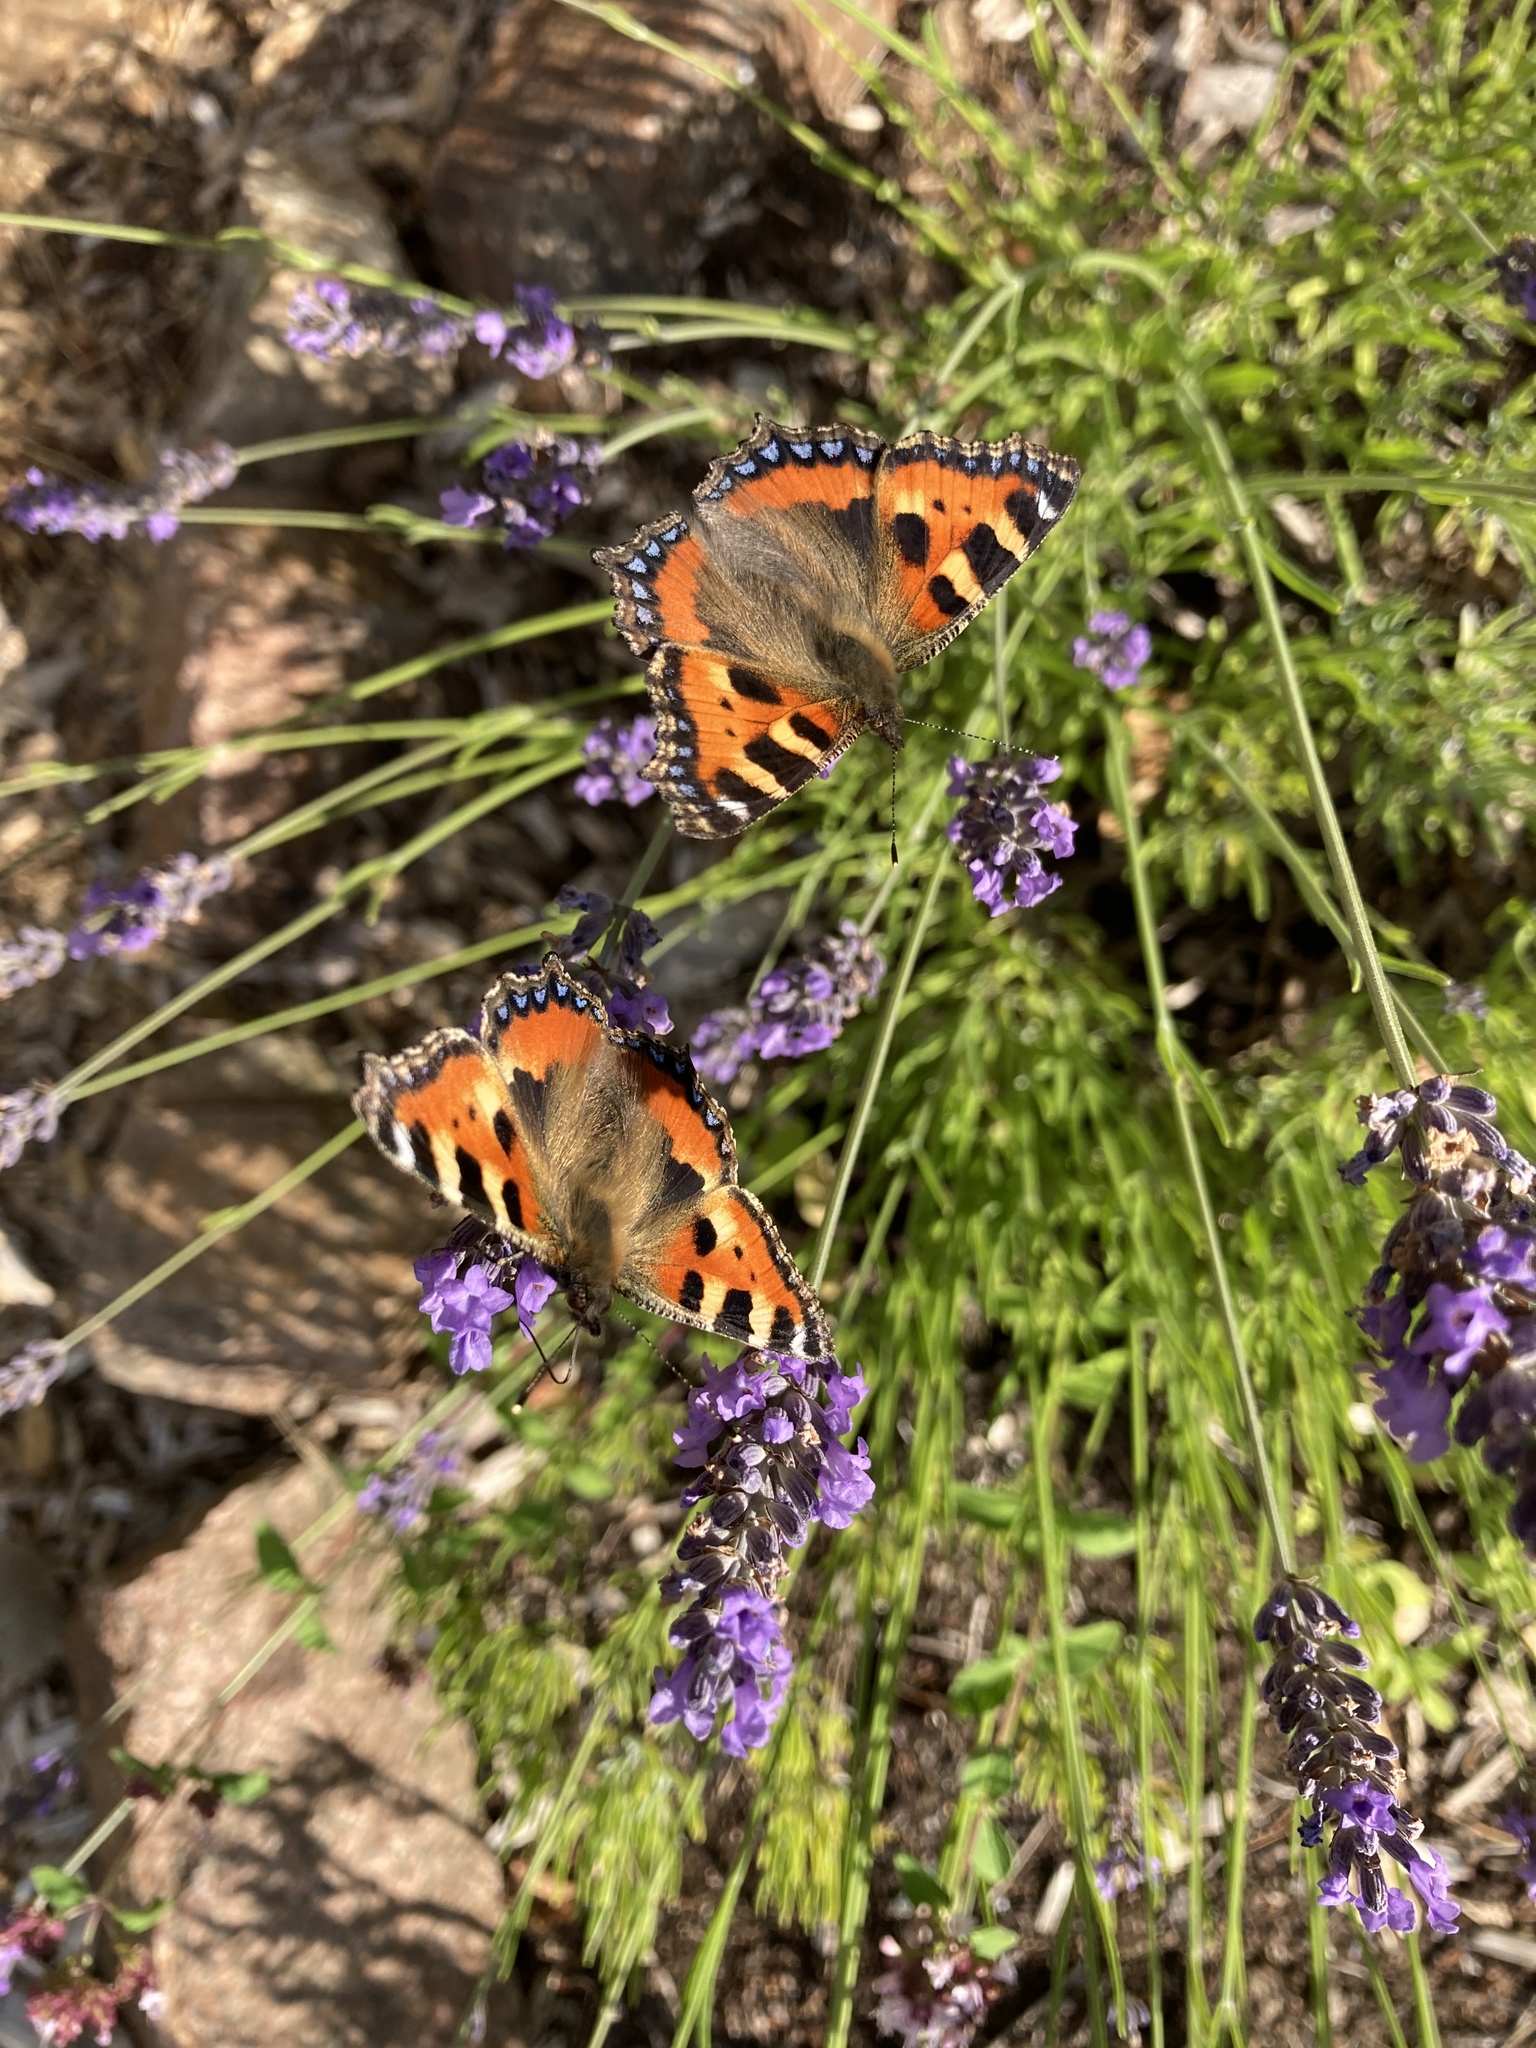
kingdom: Animalia
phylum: Arthropoda
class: Insecta
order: Lepidoptera
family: Nymphalidae
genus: Aglais
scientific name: Aglais urticae
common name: Small tortoiseshell
